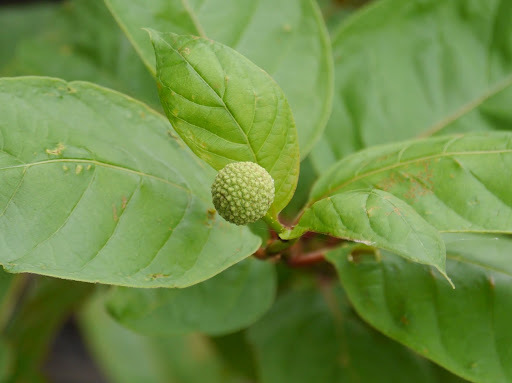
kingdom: Plantae
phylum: Tracheophyta
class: Magnoliopsida
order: Gentianales
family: Rubiaceae
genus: Cephalanthus
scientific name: Cephalanthus occidentalis
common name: Button-willow
